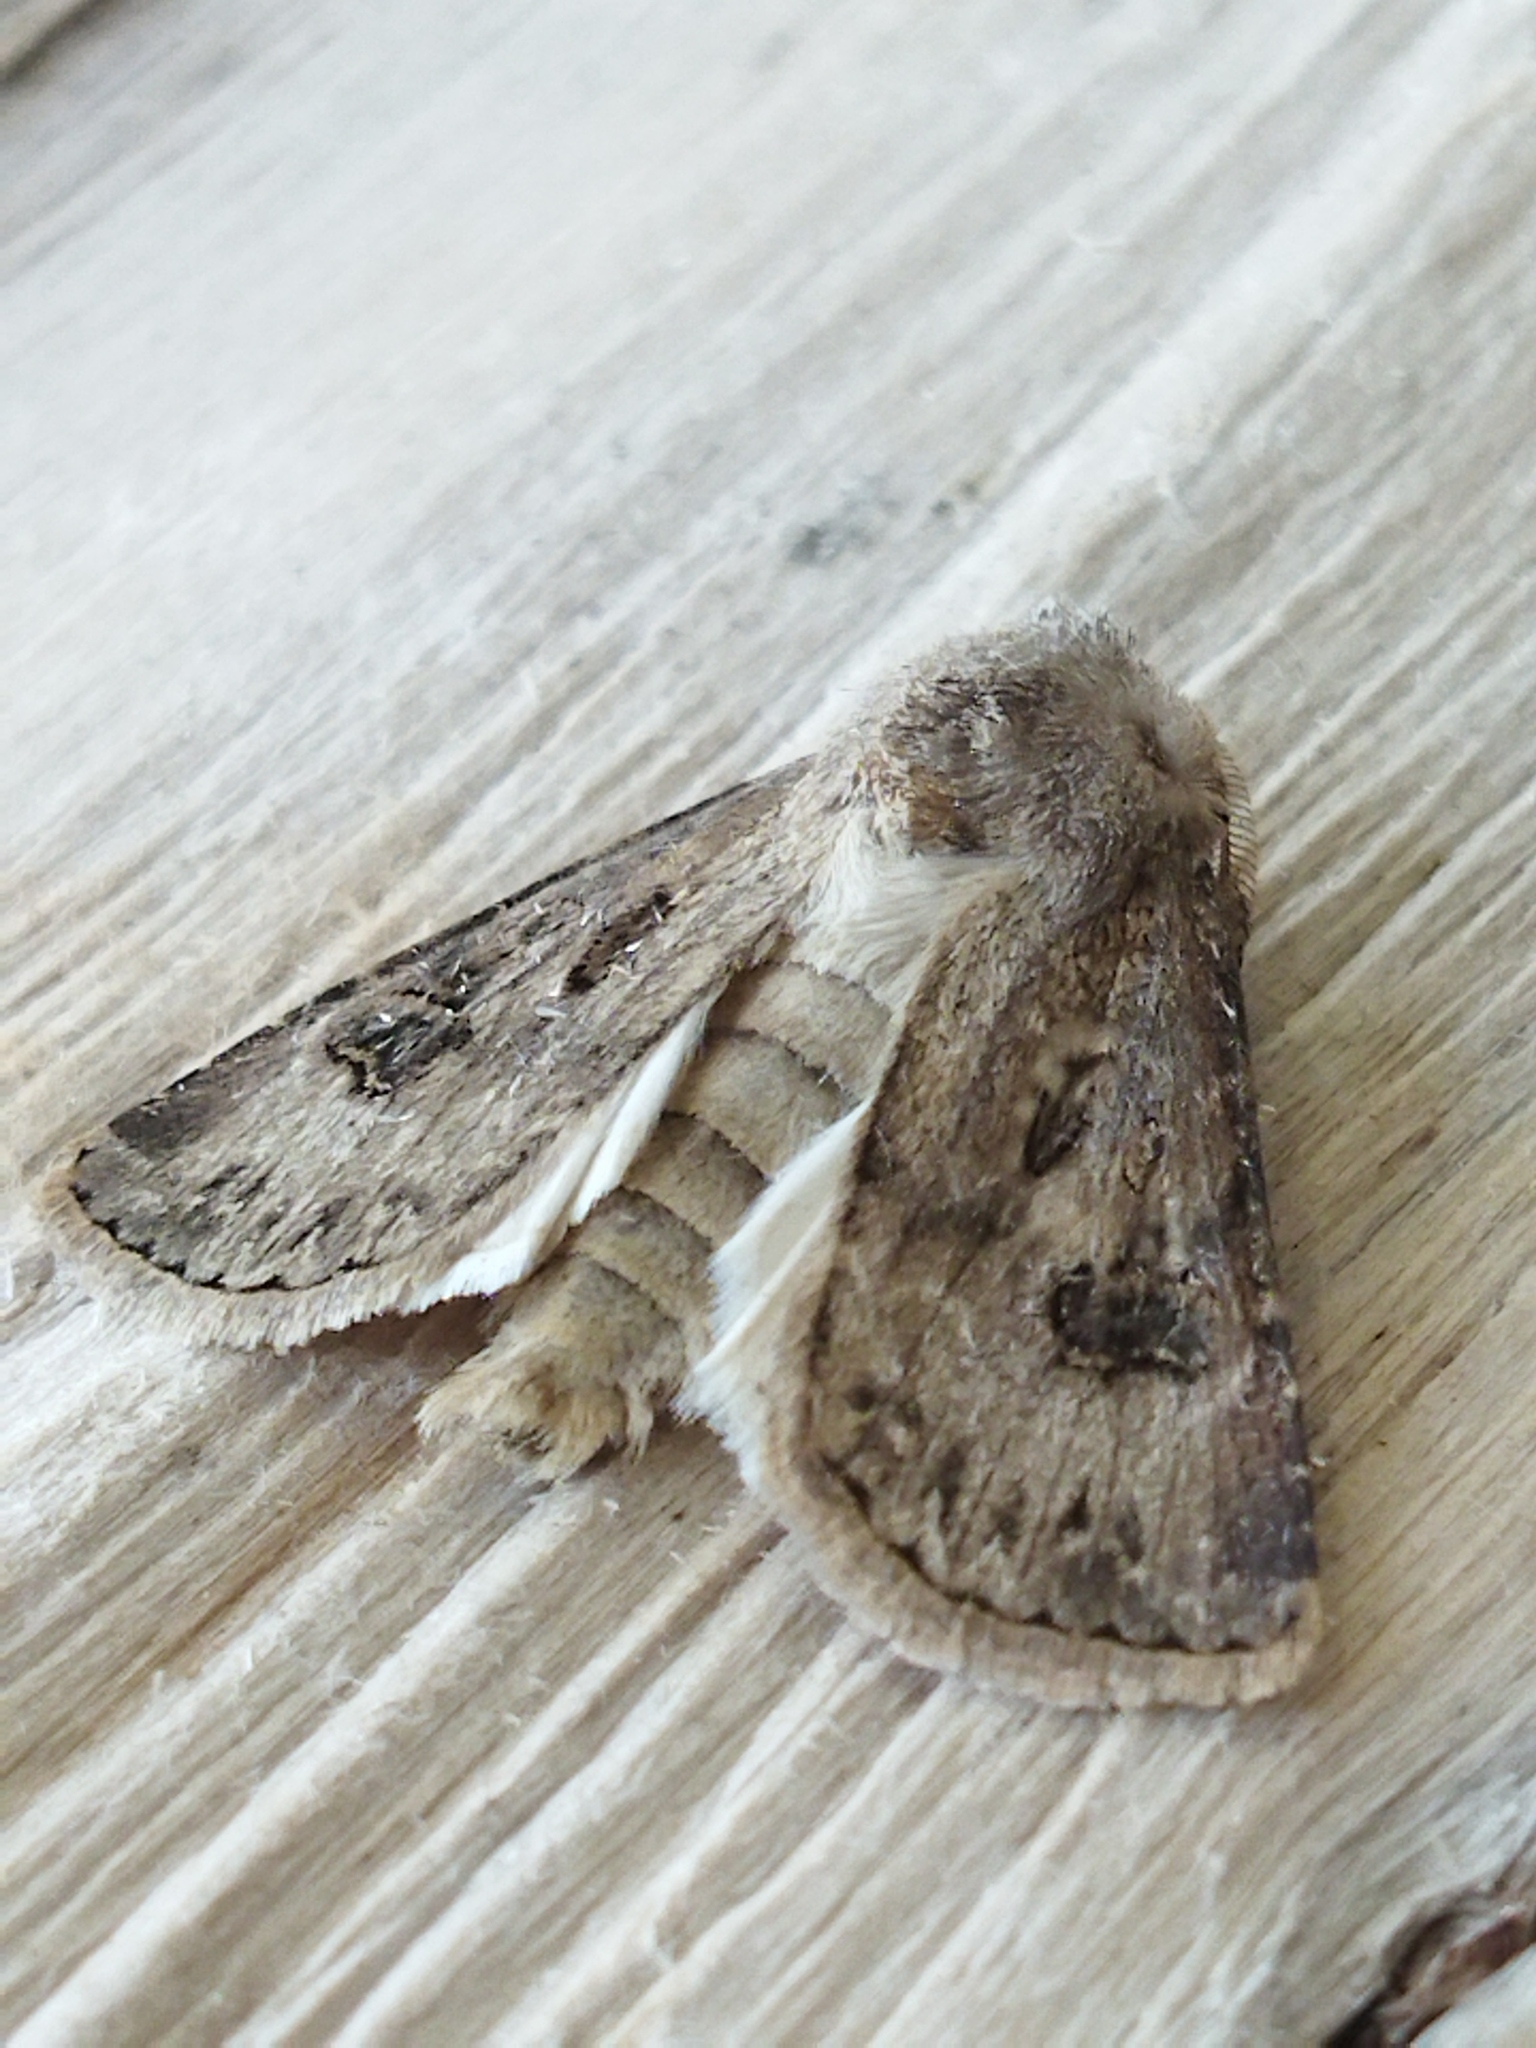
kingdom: Animalia
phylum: Arthropoda
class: Insecta
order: Lepidoptera
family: Noctuidae
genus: Agrotis
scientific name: Agrotis bigramma
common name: Great dart
